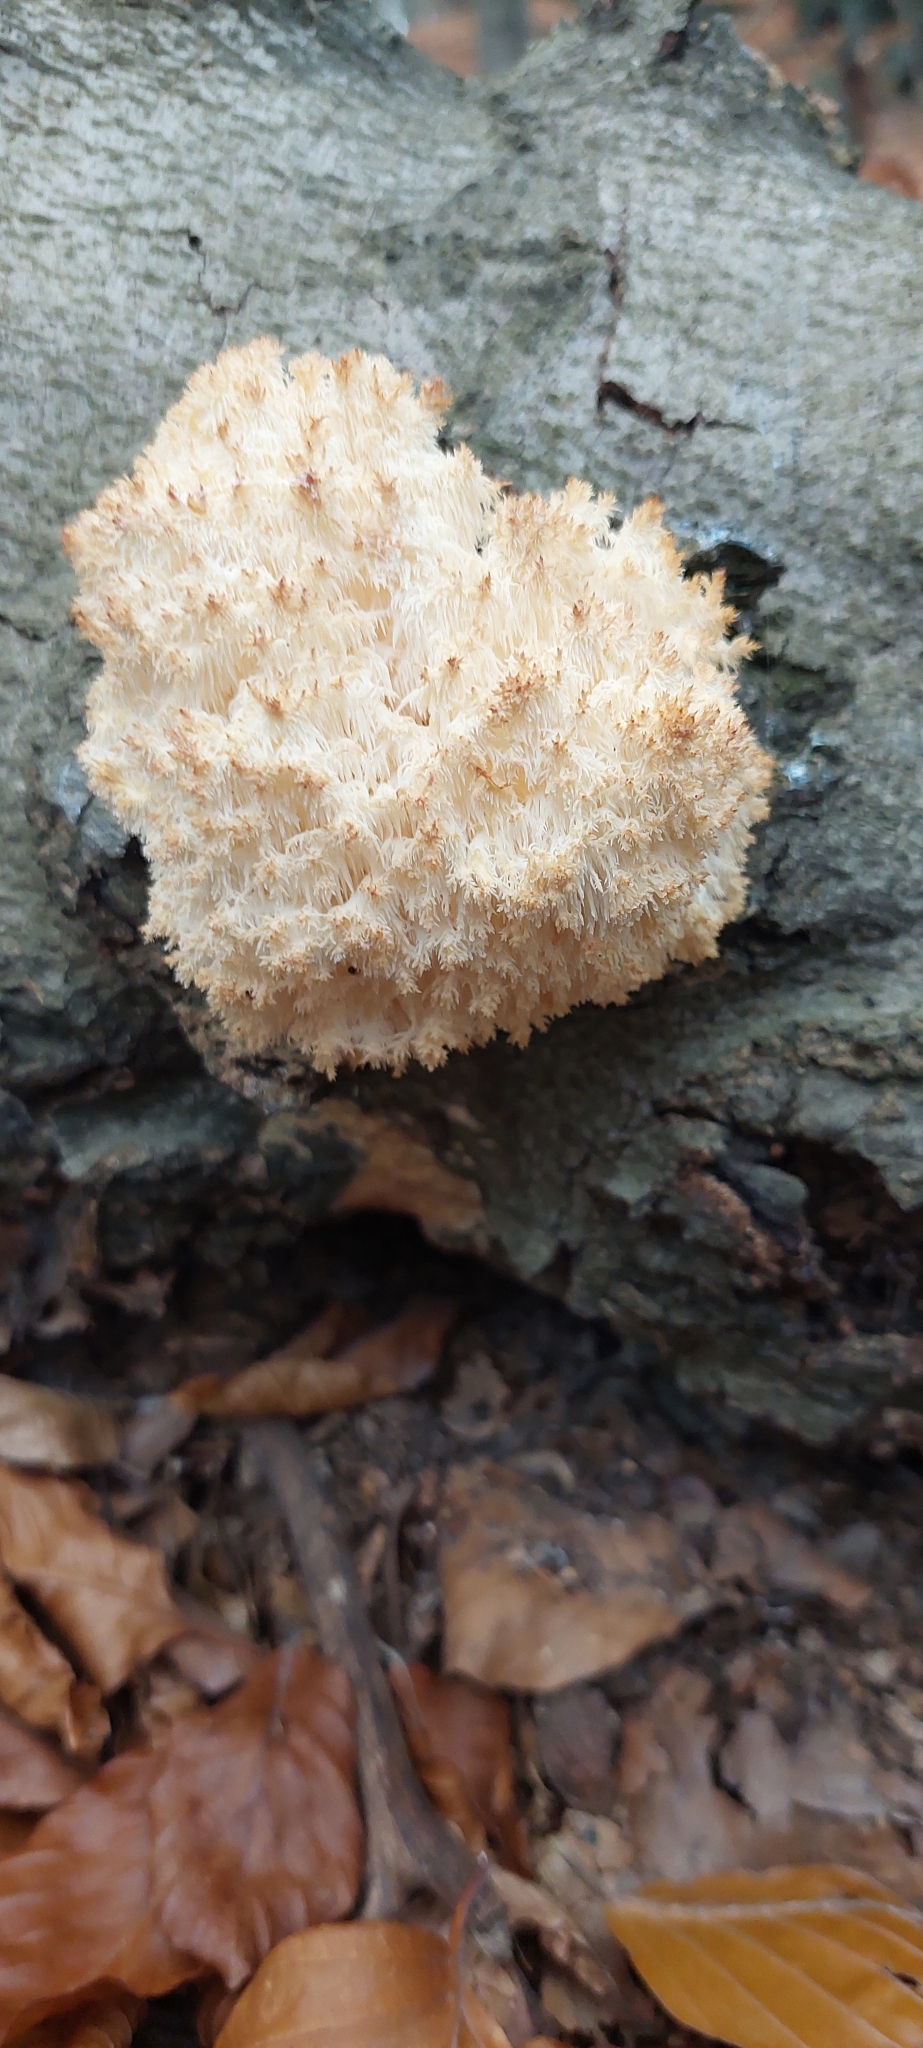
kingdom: Fungi
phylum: Basidiomycota
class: Agaricomycetes
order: Russulales
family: Hericiaceae
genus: Hericium
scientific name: Hericium coralloides
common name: Coral tooth
